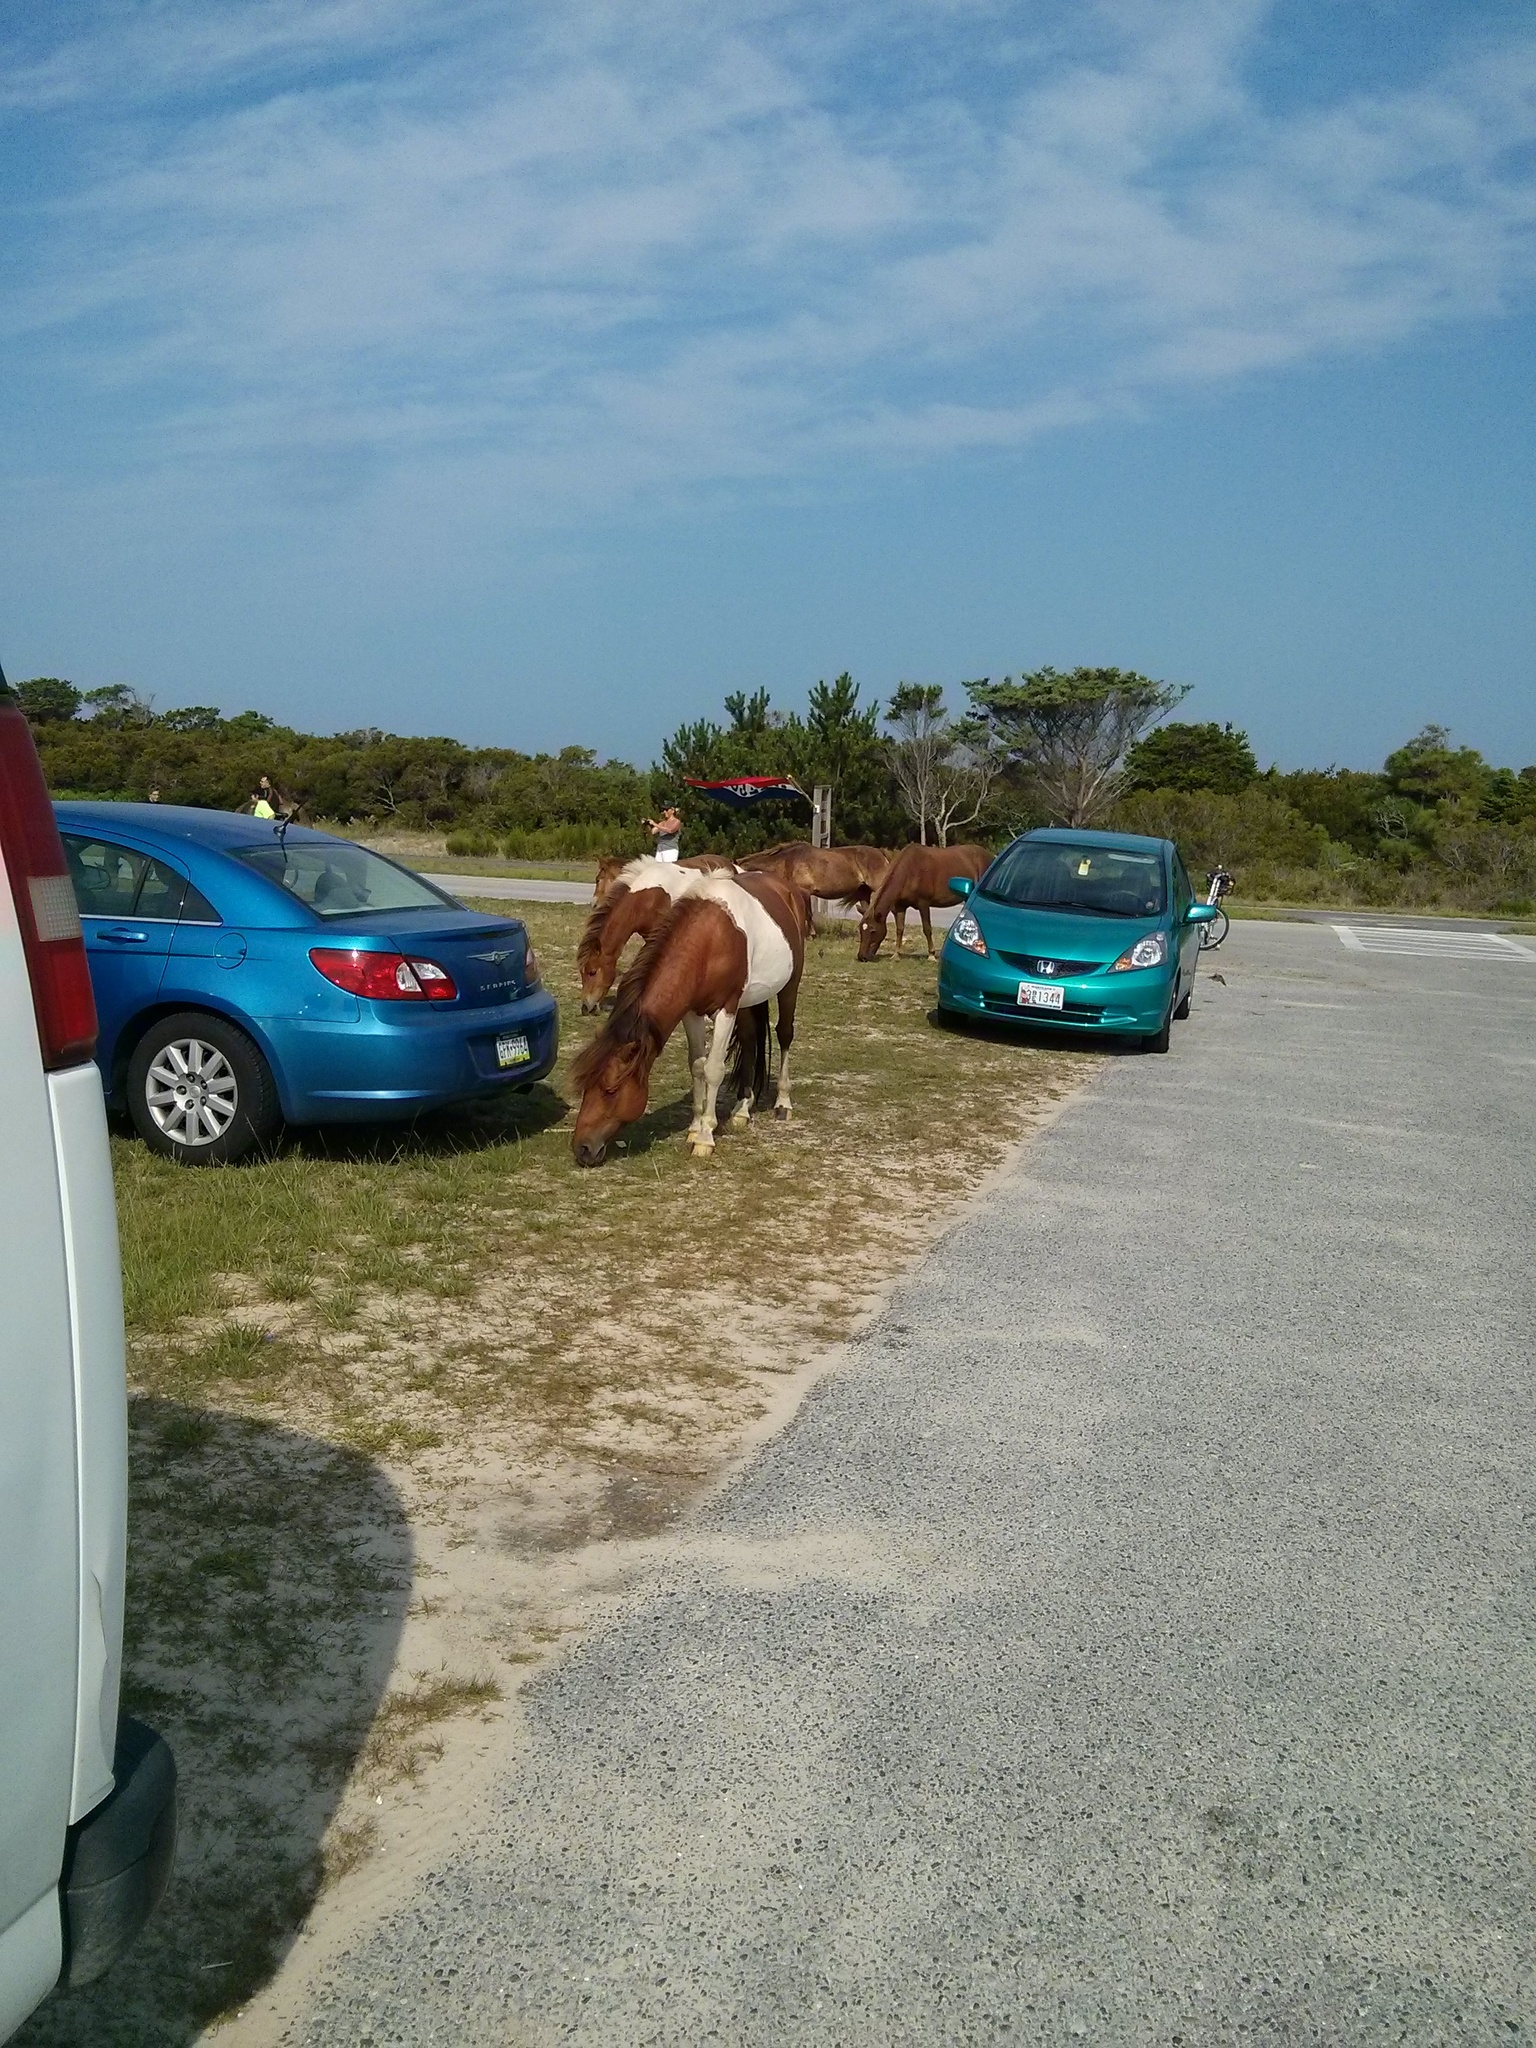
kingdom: Animalia
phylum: Chordata
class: Mammalia
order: Perissodactyla
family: Equidae
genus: Equus
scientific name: Equus caballus
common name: Horse
